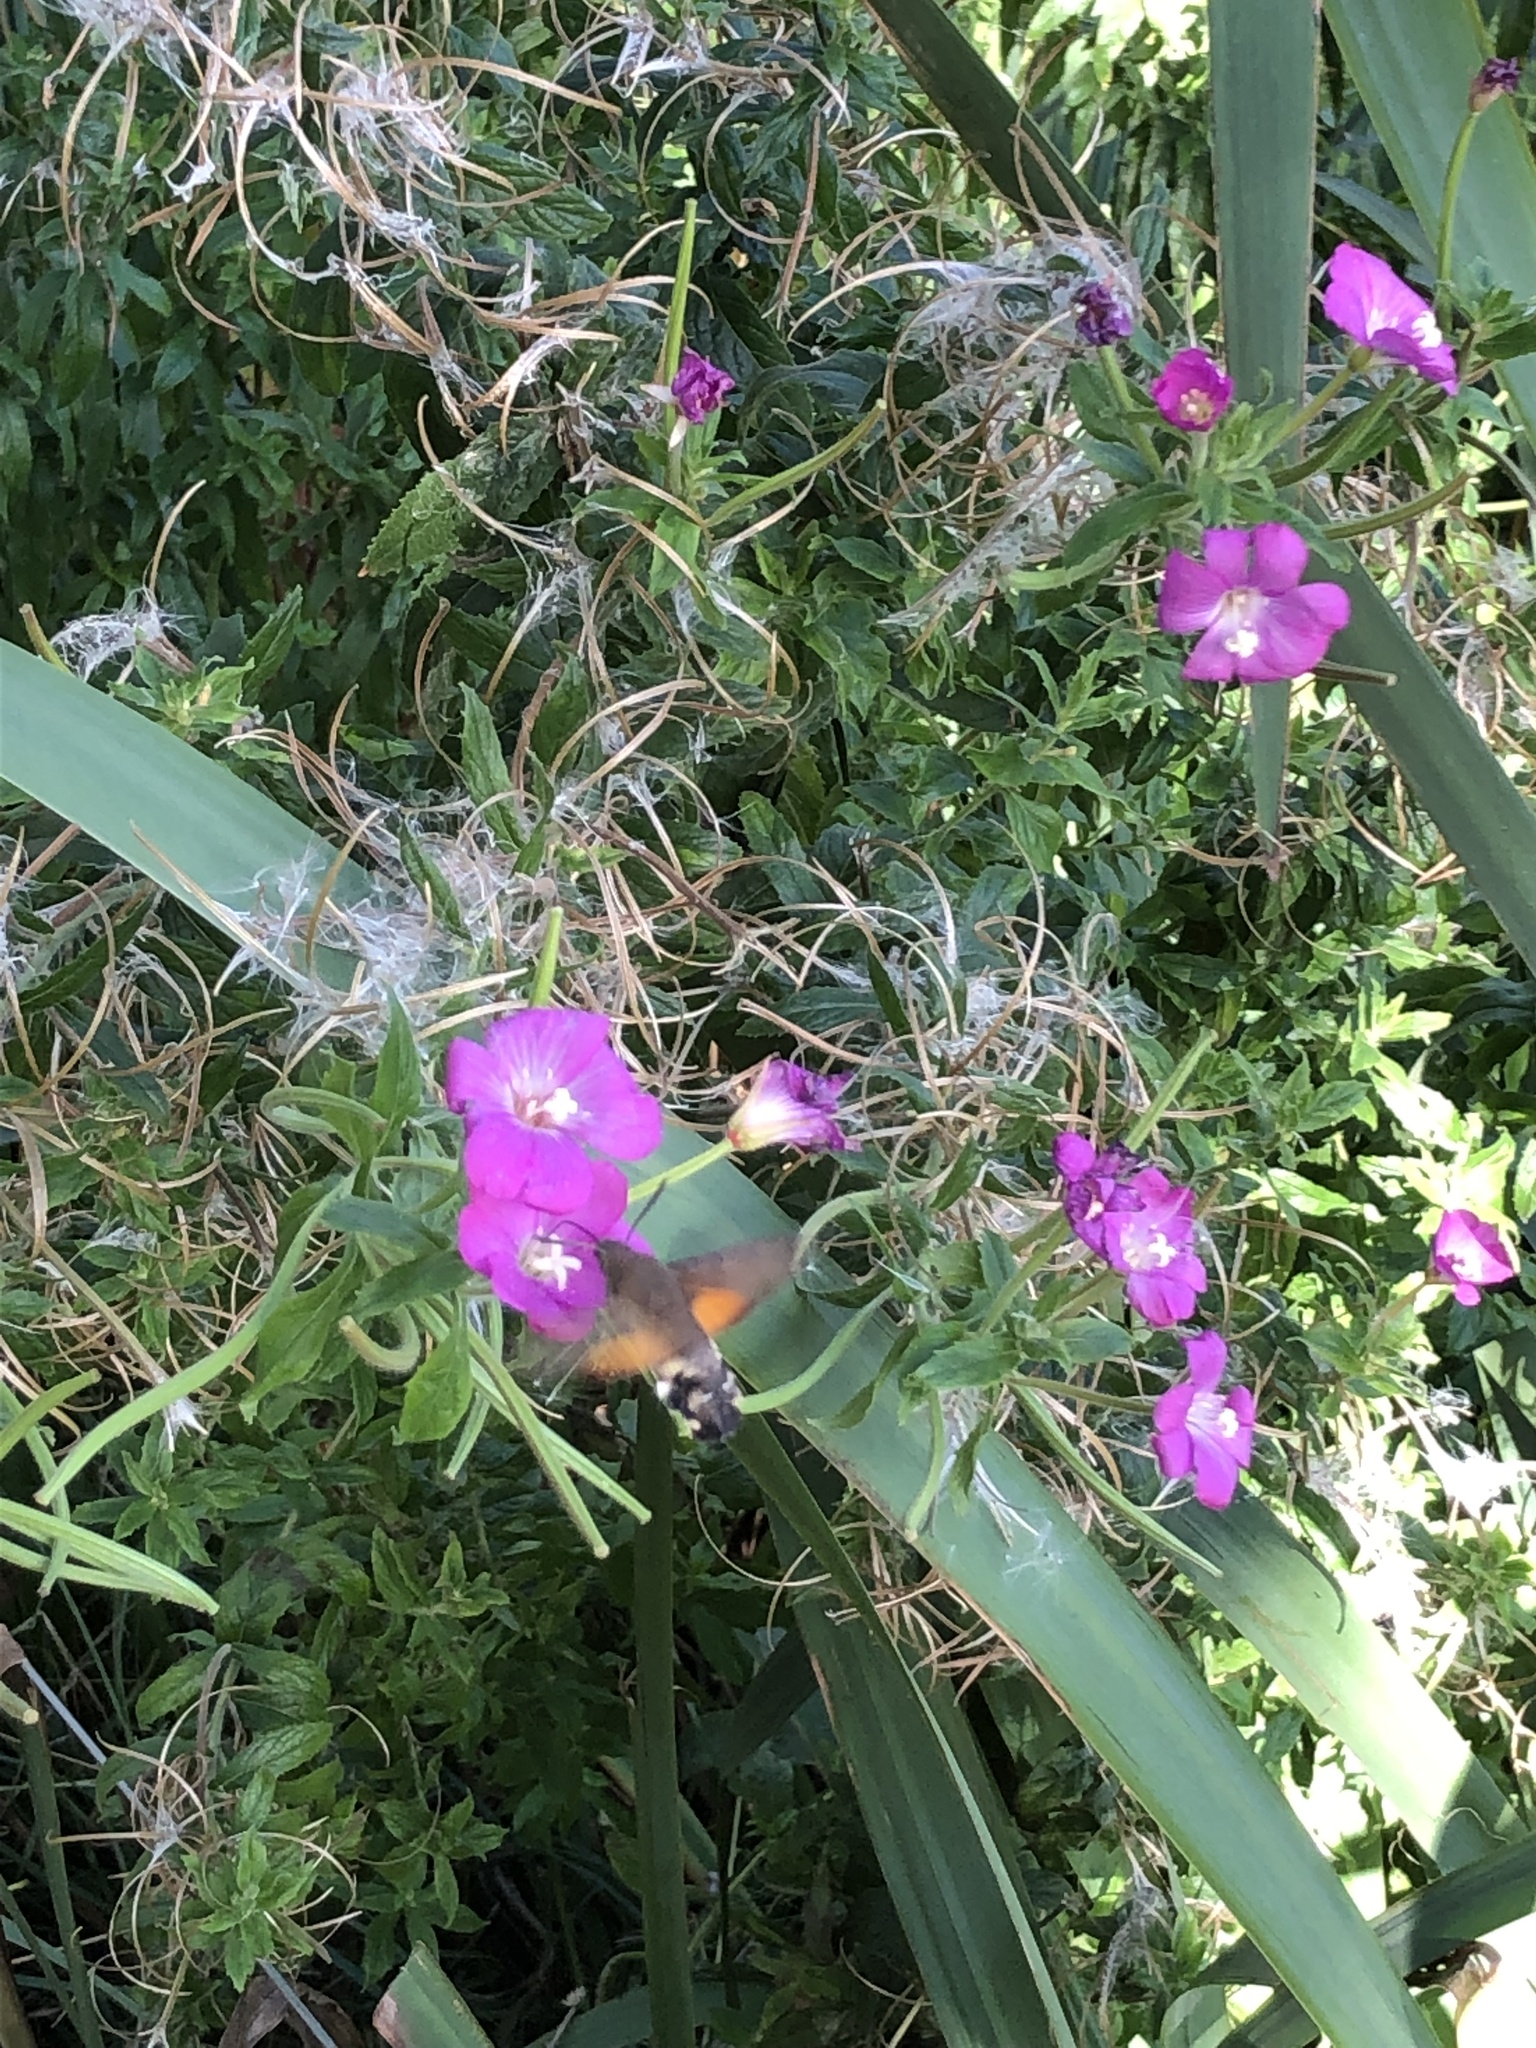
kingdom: Animalia
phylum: Arthropoda
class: Insecta
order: Lepidoptera
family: Sphingidae
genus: Macroglossum
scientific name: Macroglossum stellatarum
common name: Humming-bird hawk-moth
